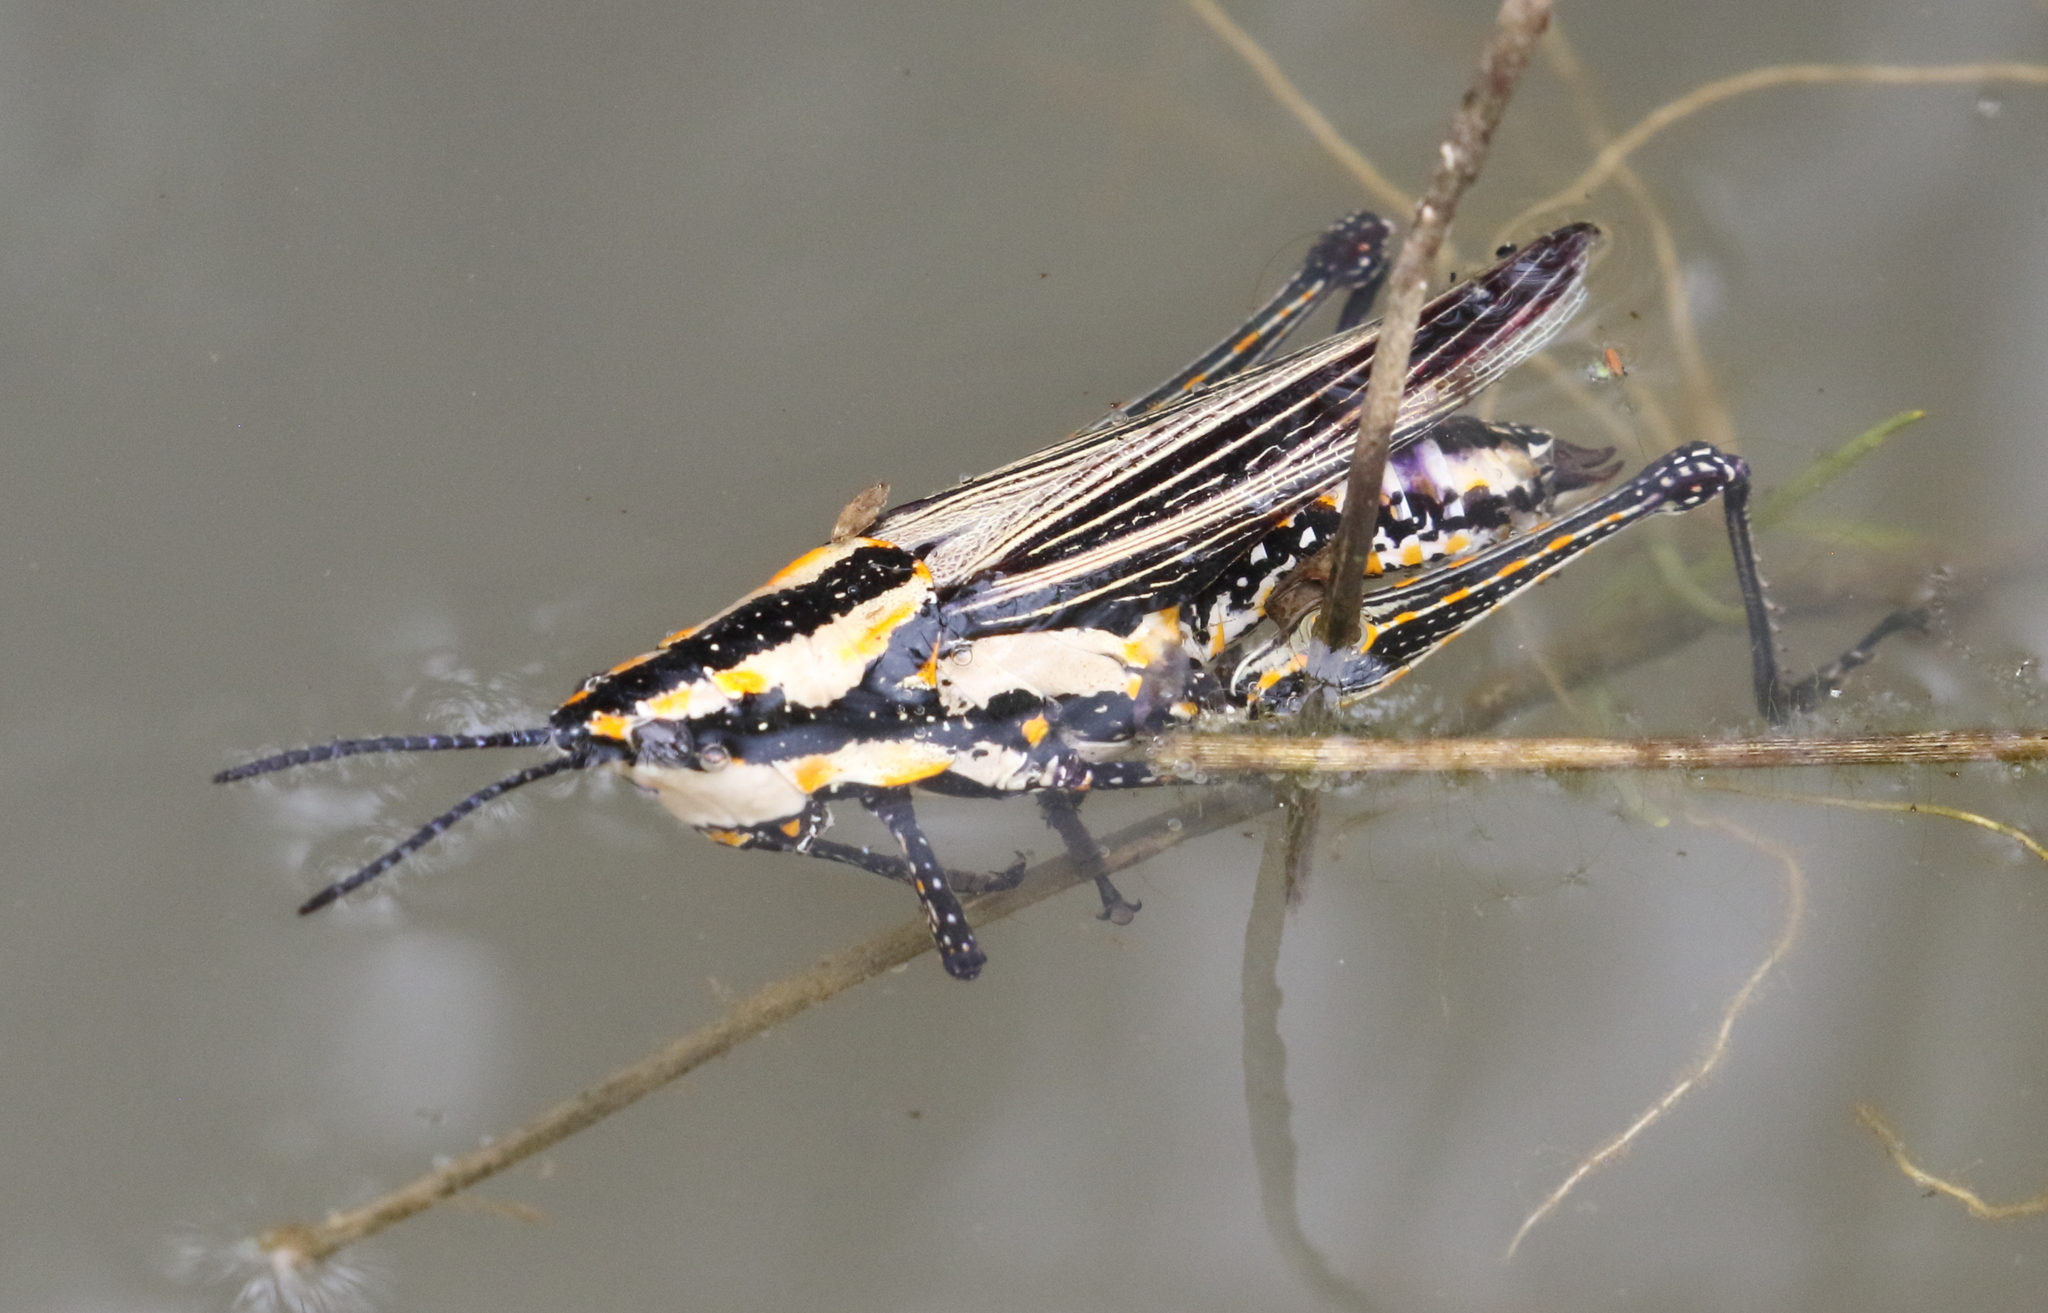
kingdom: Animalia
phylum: Arthropoda
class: Insecta
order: Orthoptera
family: Pyrgomorphidae
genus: Ochrophlebia
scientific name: Ochrophlebia cafra
